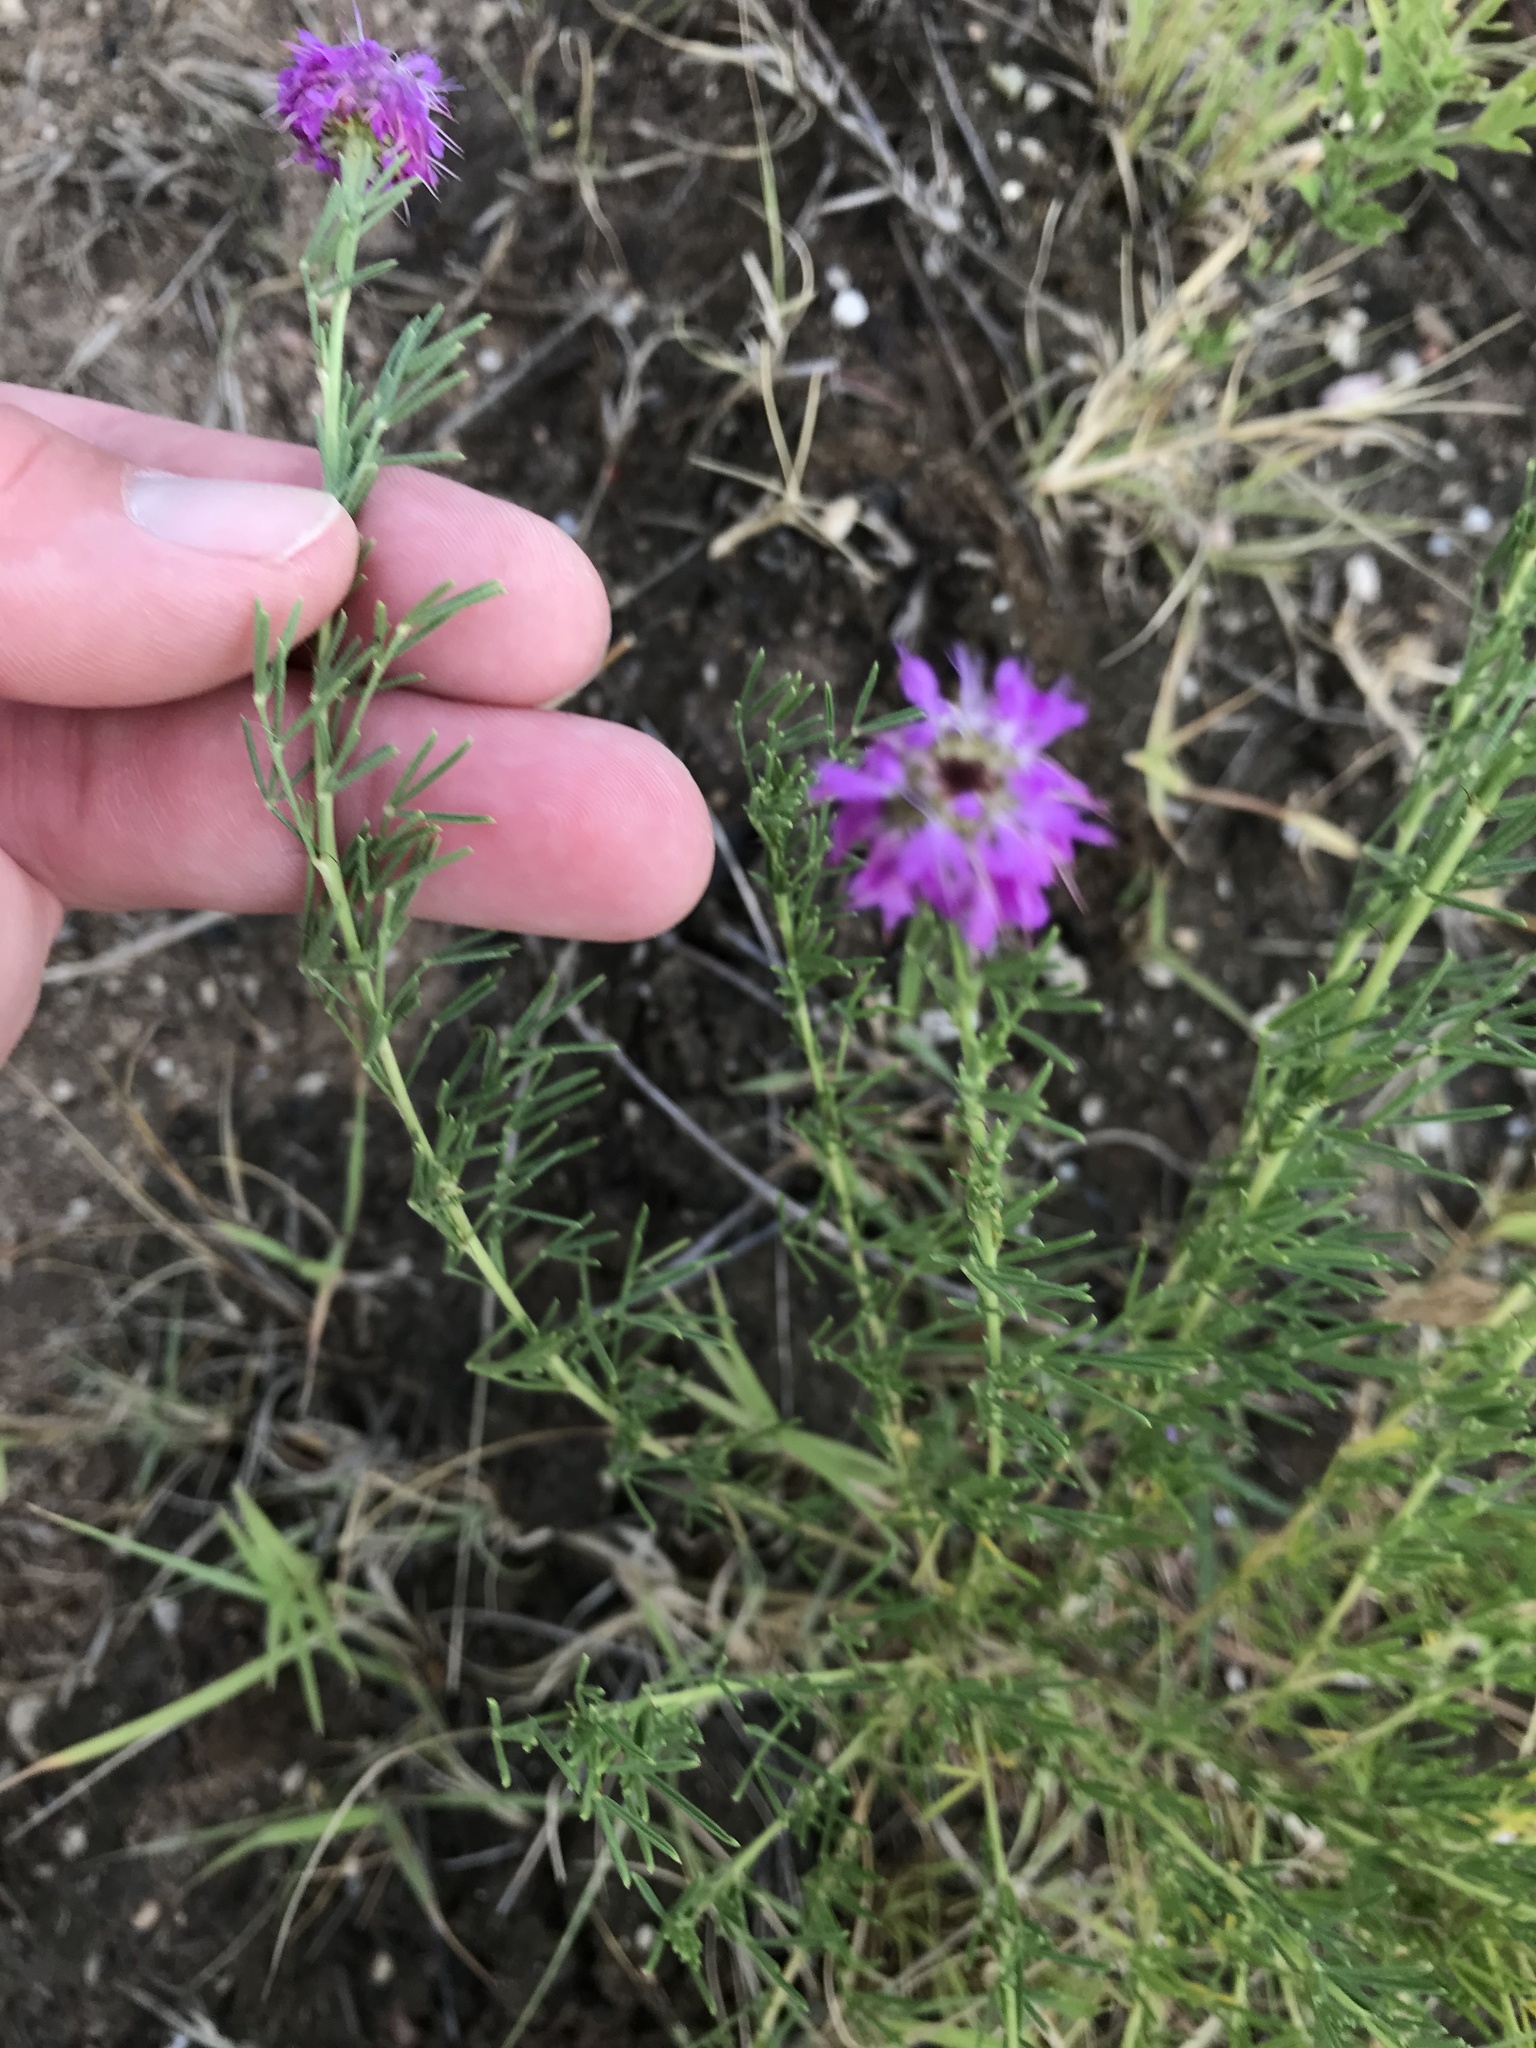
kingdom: Plantae
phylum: Tracheophyta
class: Magnoliopsida
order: Fabales
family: Fabaceae
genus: Dalea
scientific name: Dalea compacta
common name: Compact prairie-clover
